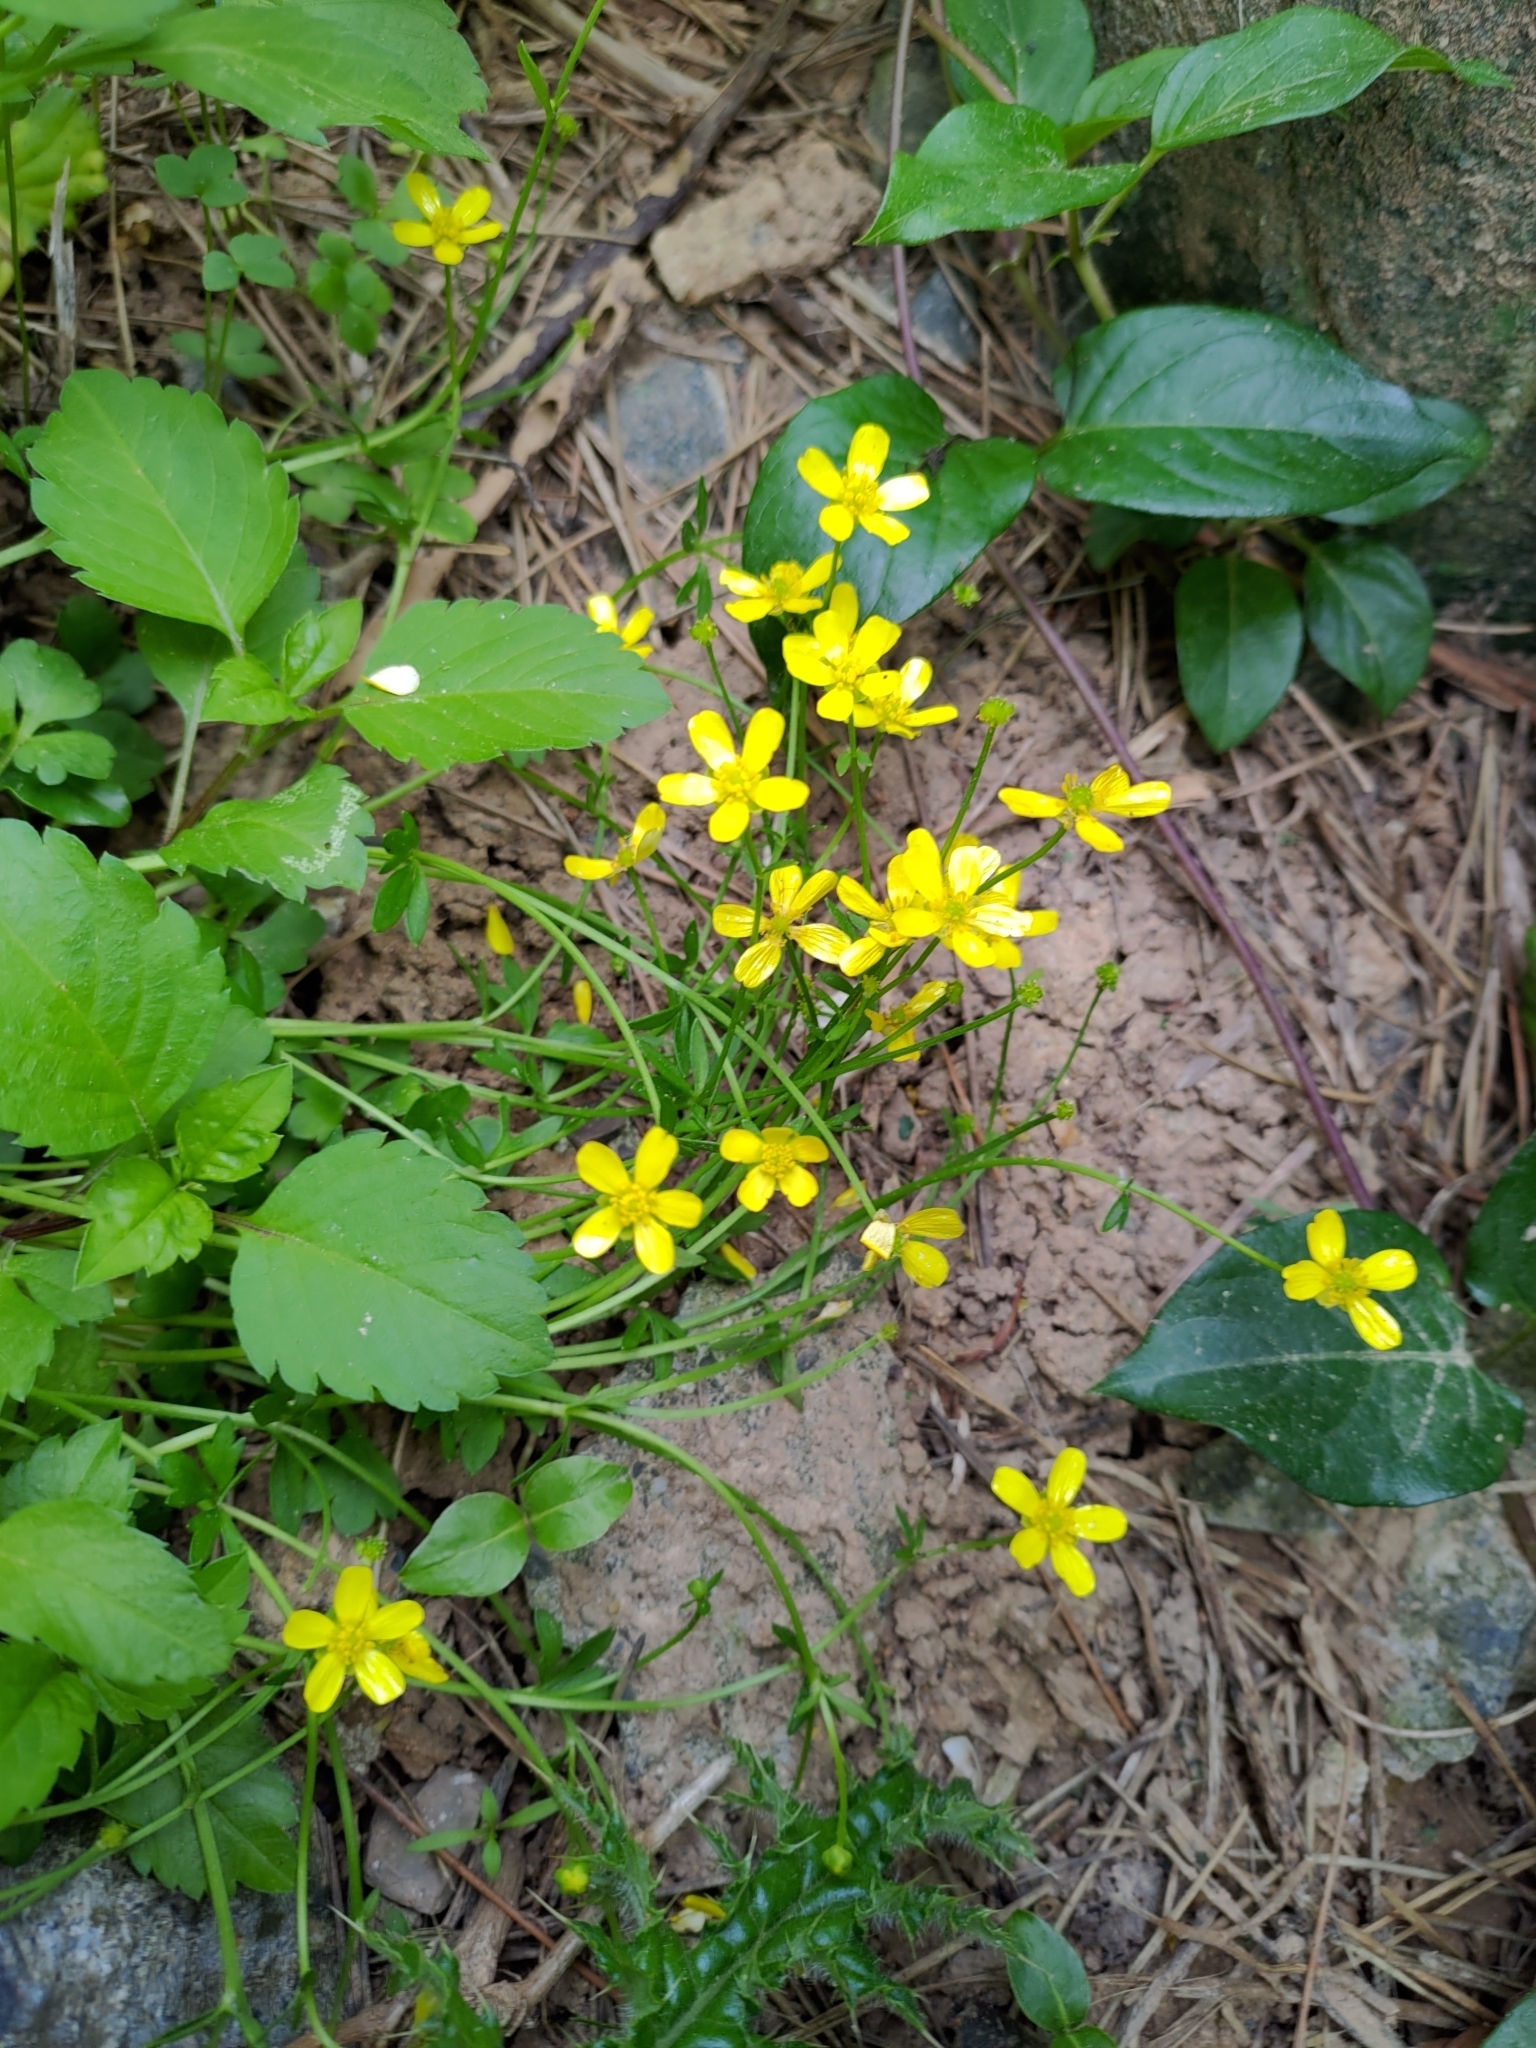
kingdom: Plantae
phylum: Tracheophyta
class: Magnoliopsida
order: Ranunculales
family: Ranunculaceae
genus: Ranunculus
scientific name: Ranunculus ternatus
